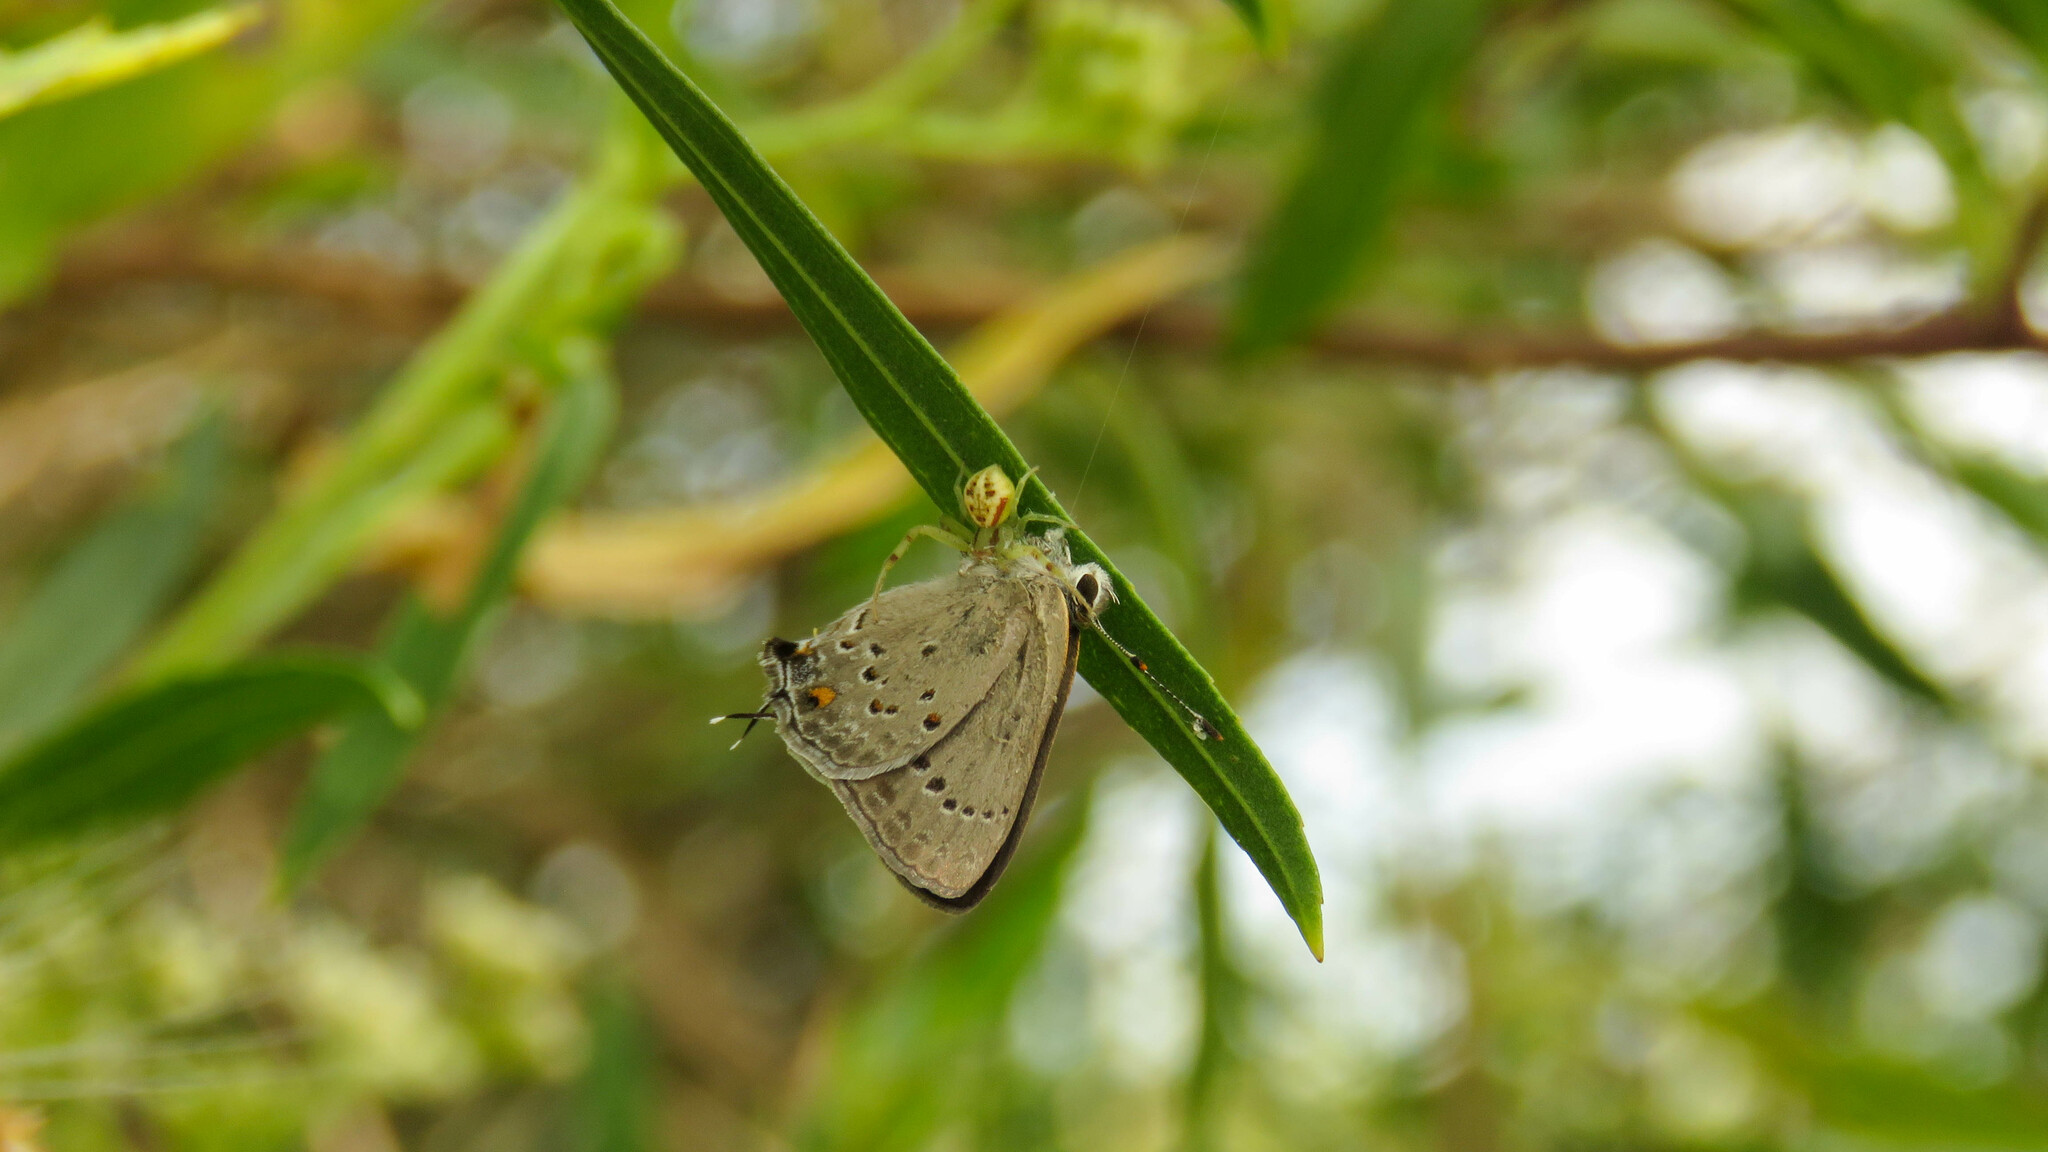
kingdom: Animalia
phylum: Arthropoda
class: Arachnida
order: Araneae
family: Thomisidae
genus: Misumenops
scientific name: Misumenops
